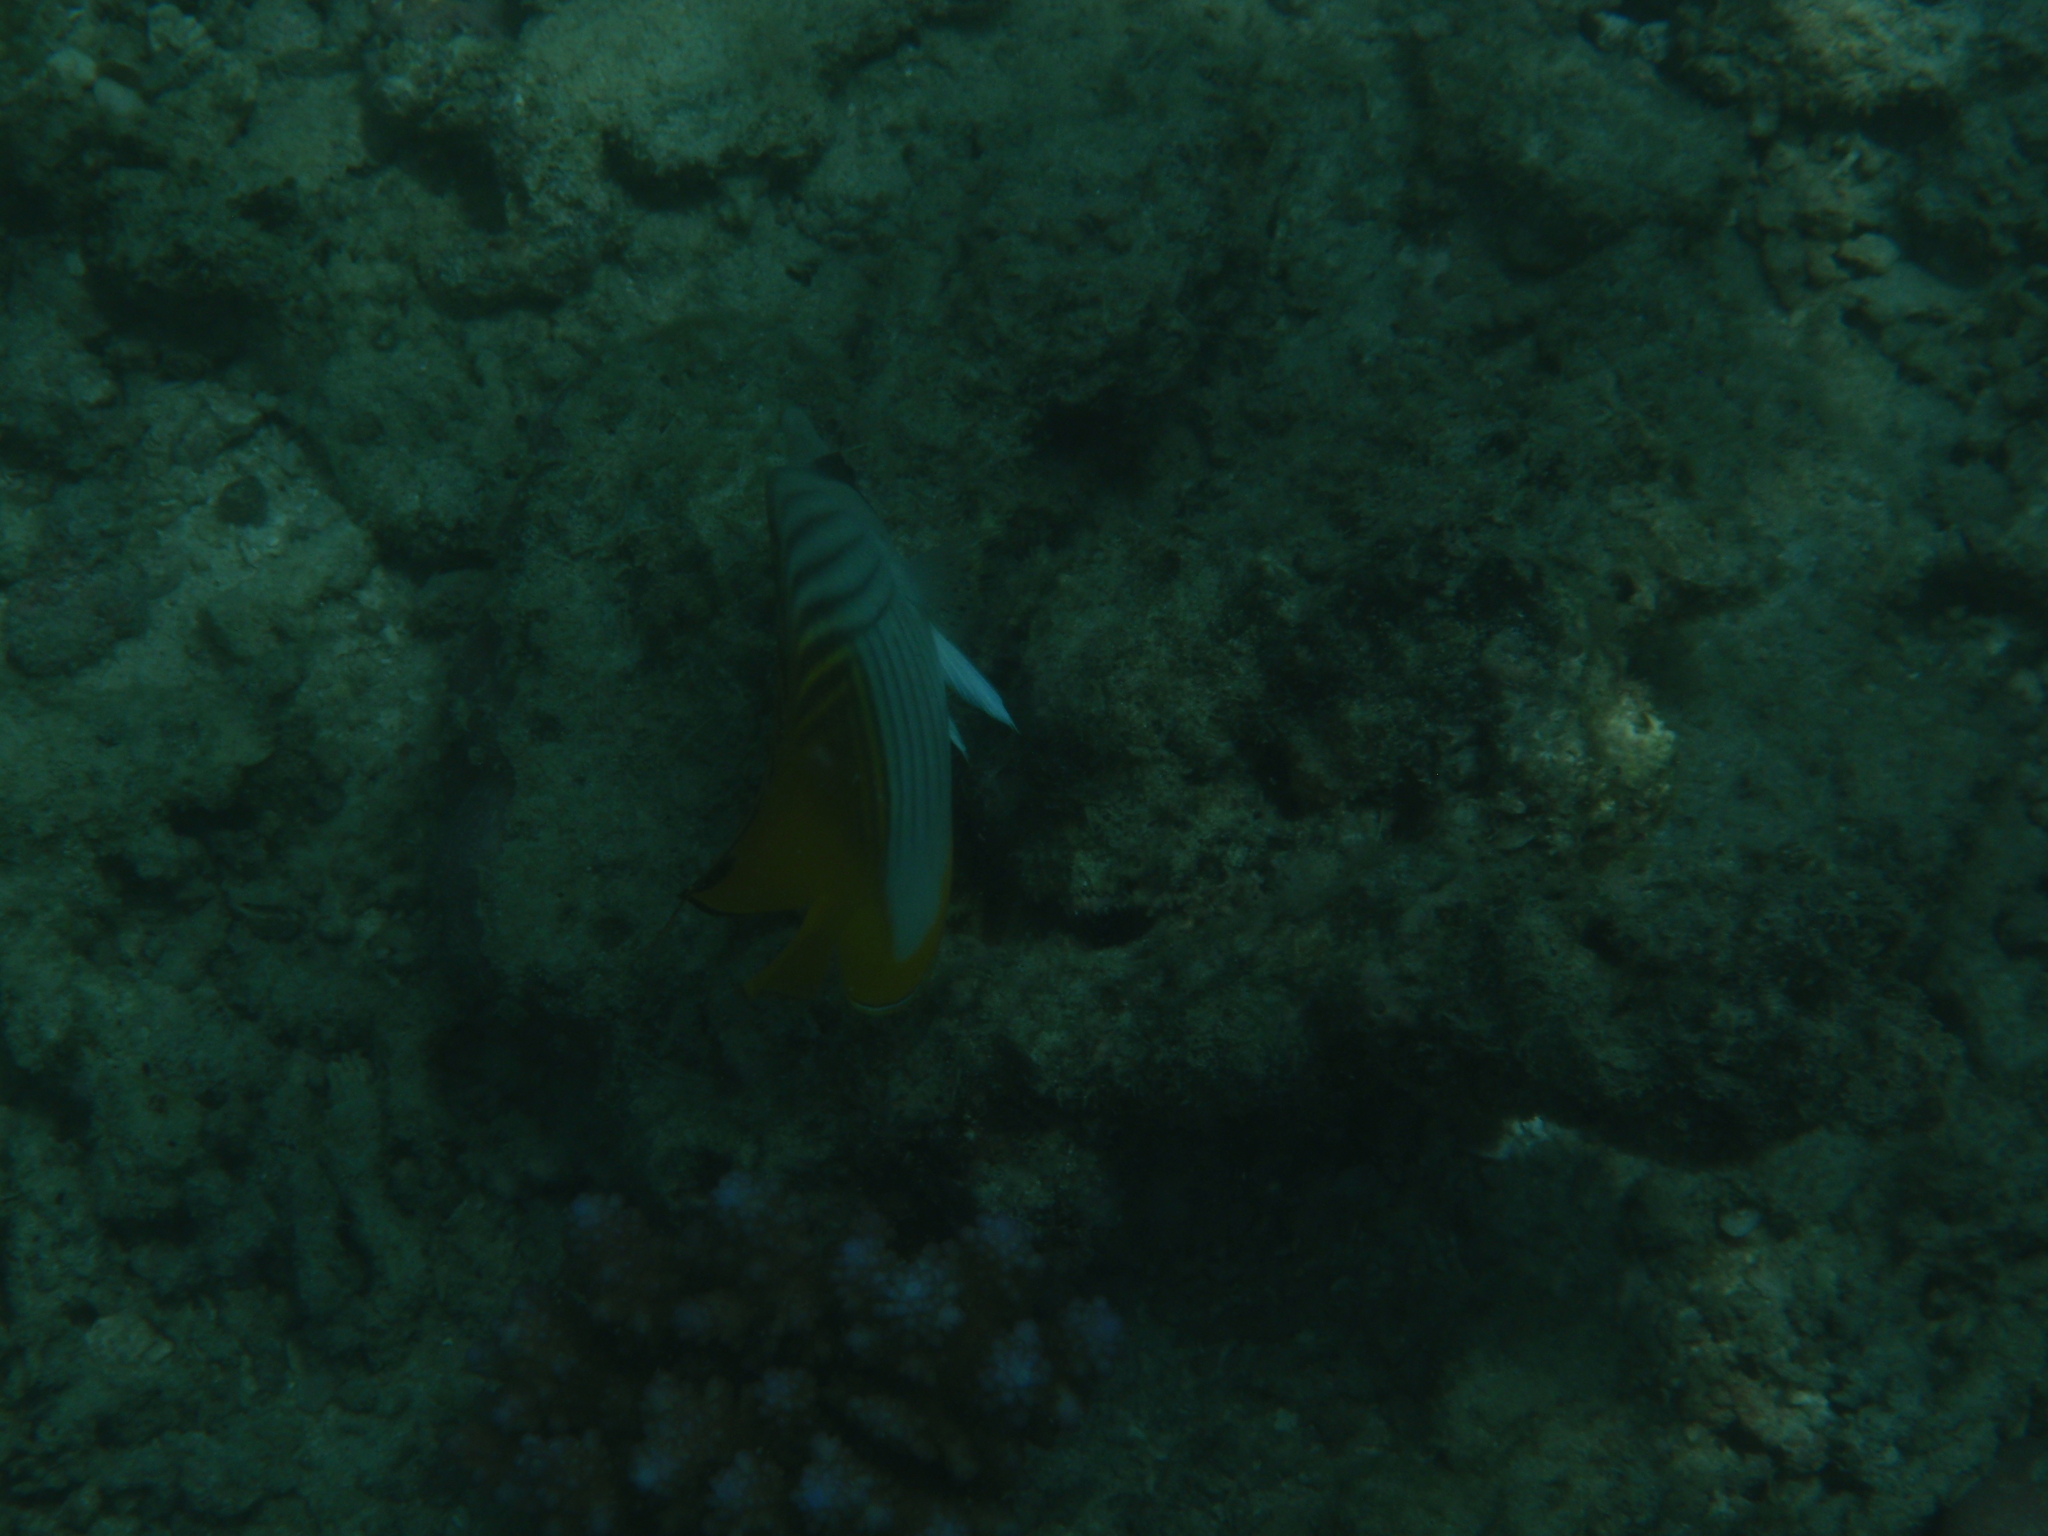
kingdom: Animalia
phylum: Chordata
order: Perciformes
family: Chaetodontidae
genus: Chaetodon
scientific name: Chaetodon auriga
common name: Threadfin butterflyfish
